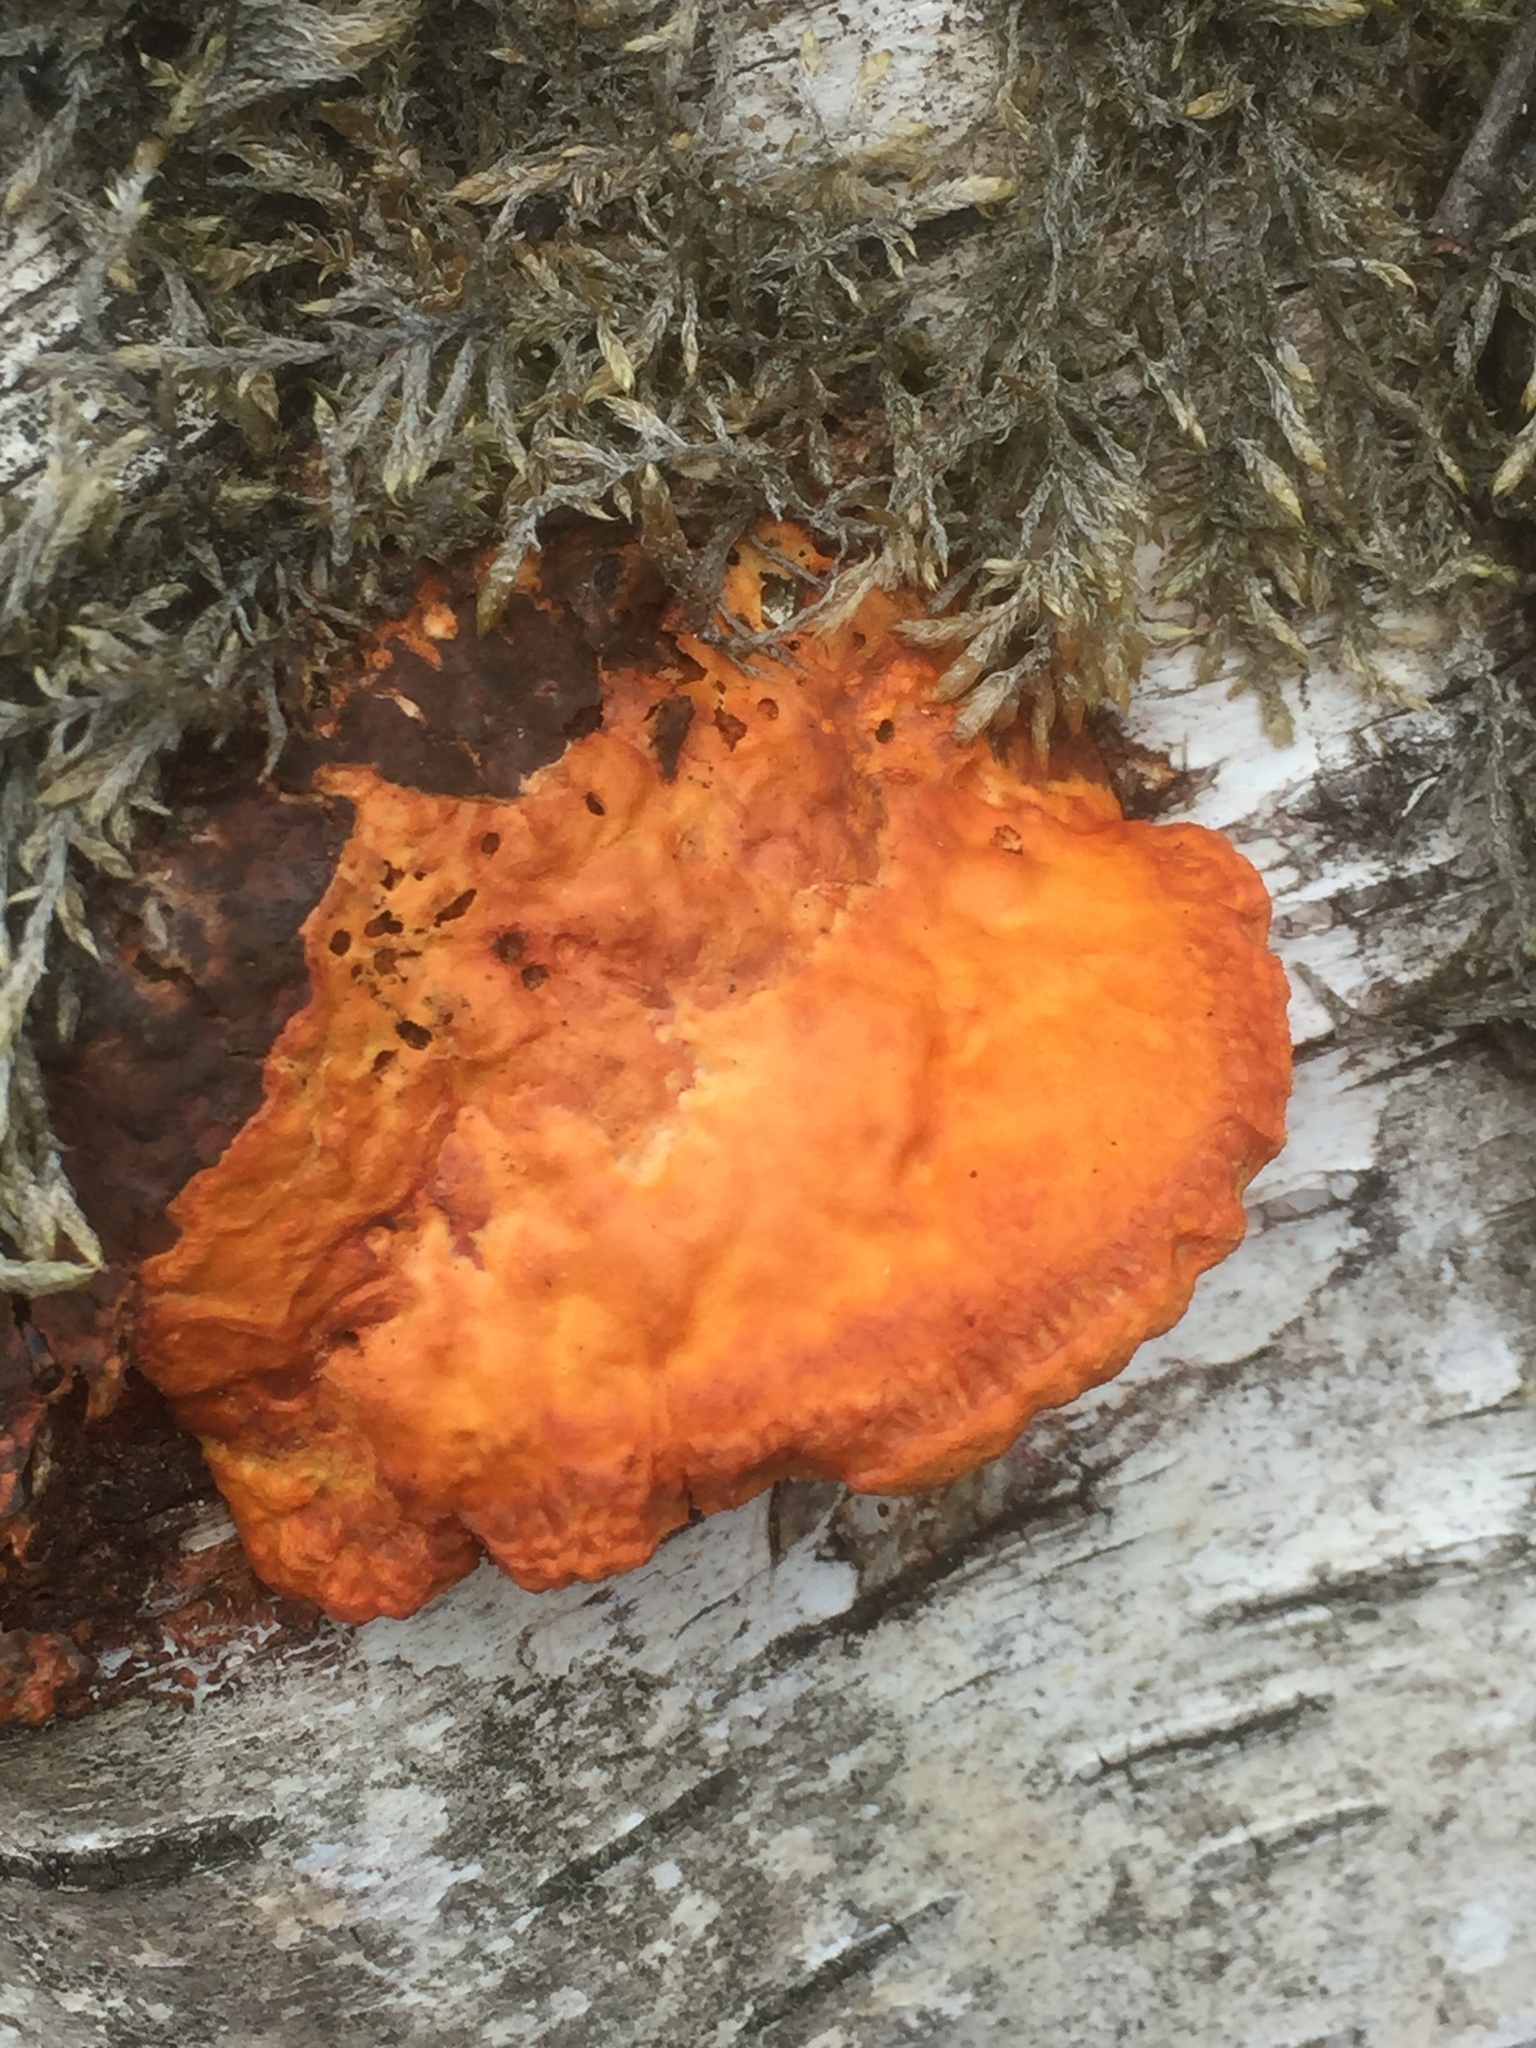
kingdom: Fungi
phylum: Basidiomycota
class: Agaricomycetes
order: Polyporales
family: Polyporaceae
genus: Trametes
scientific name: Trametes cinnabarina
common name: Northern cinnabar polypore
